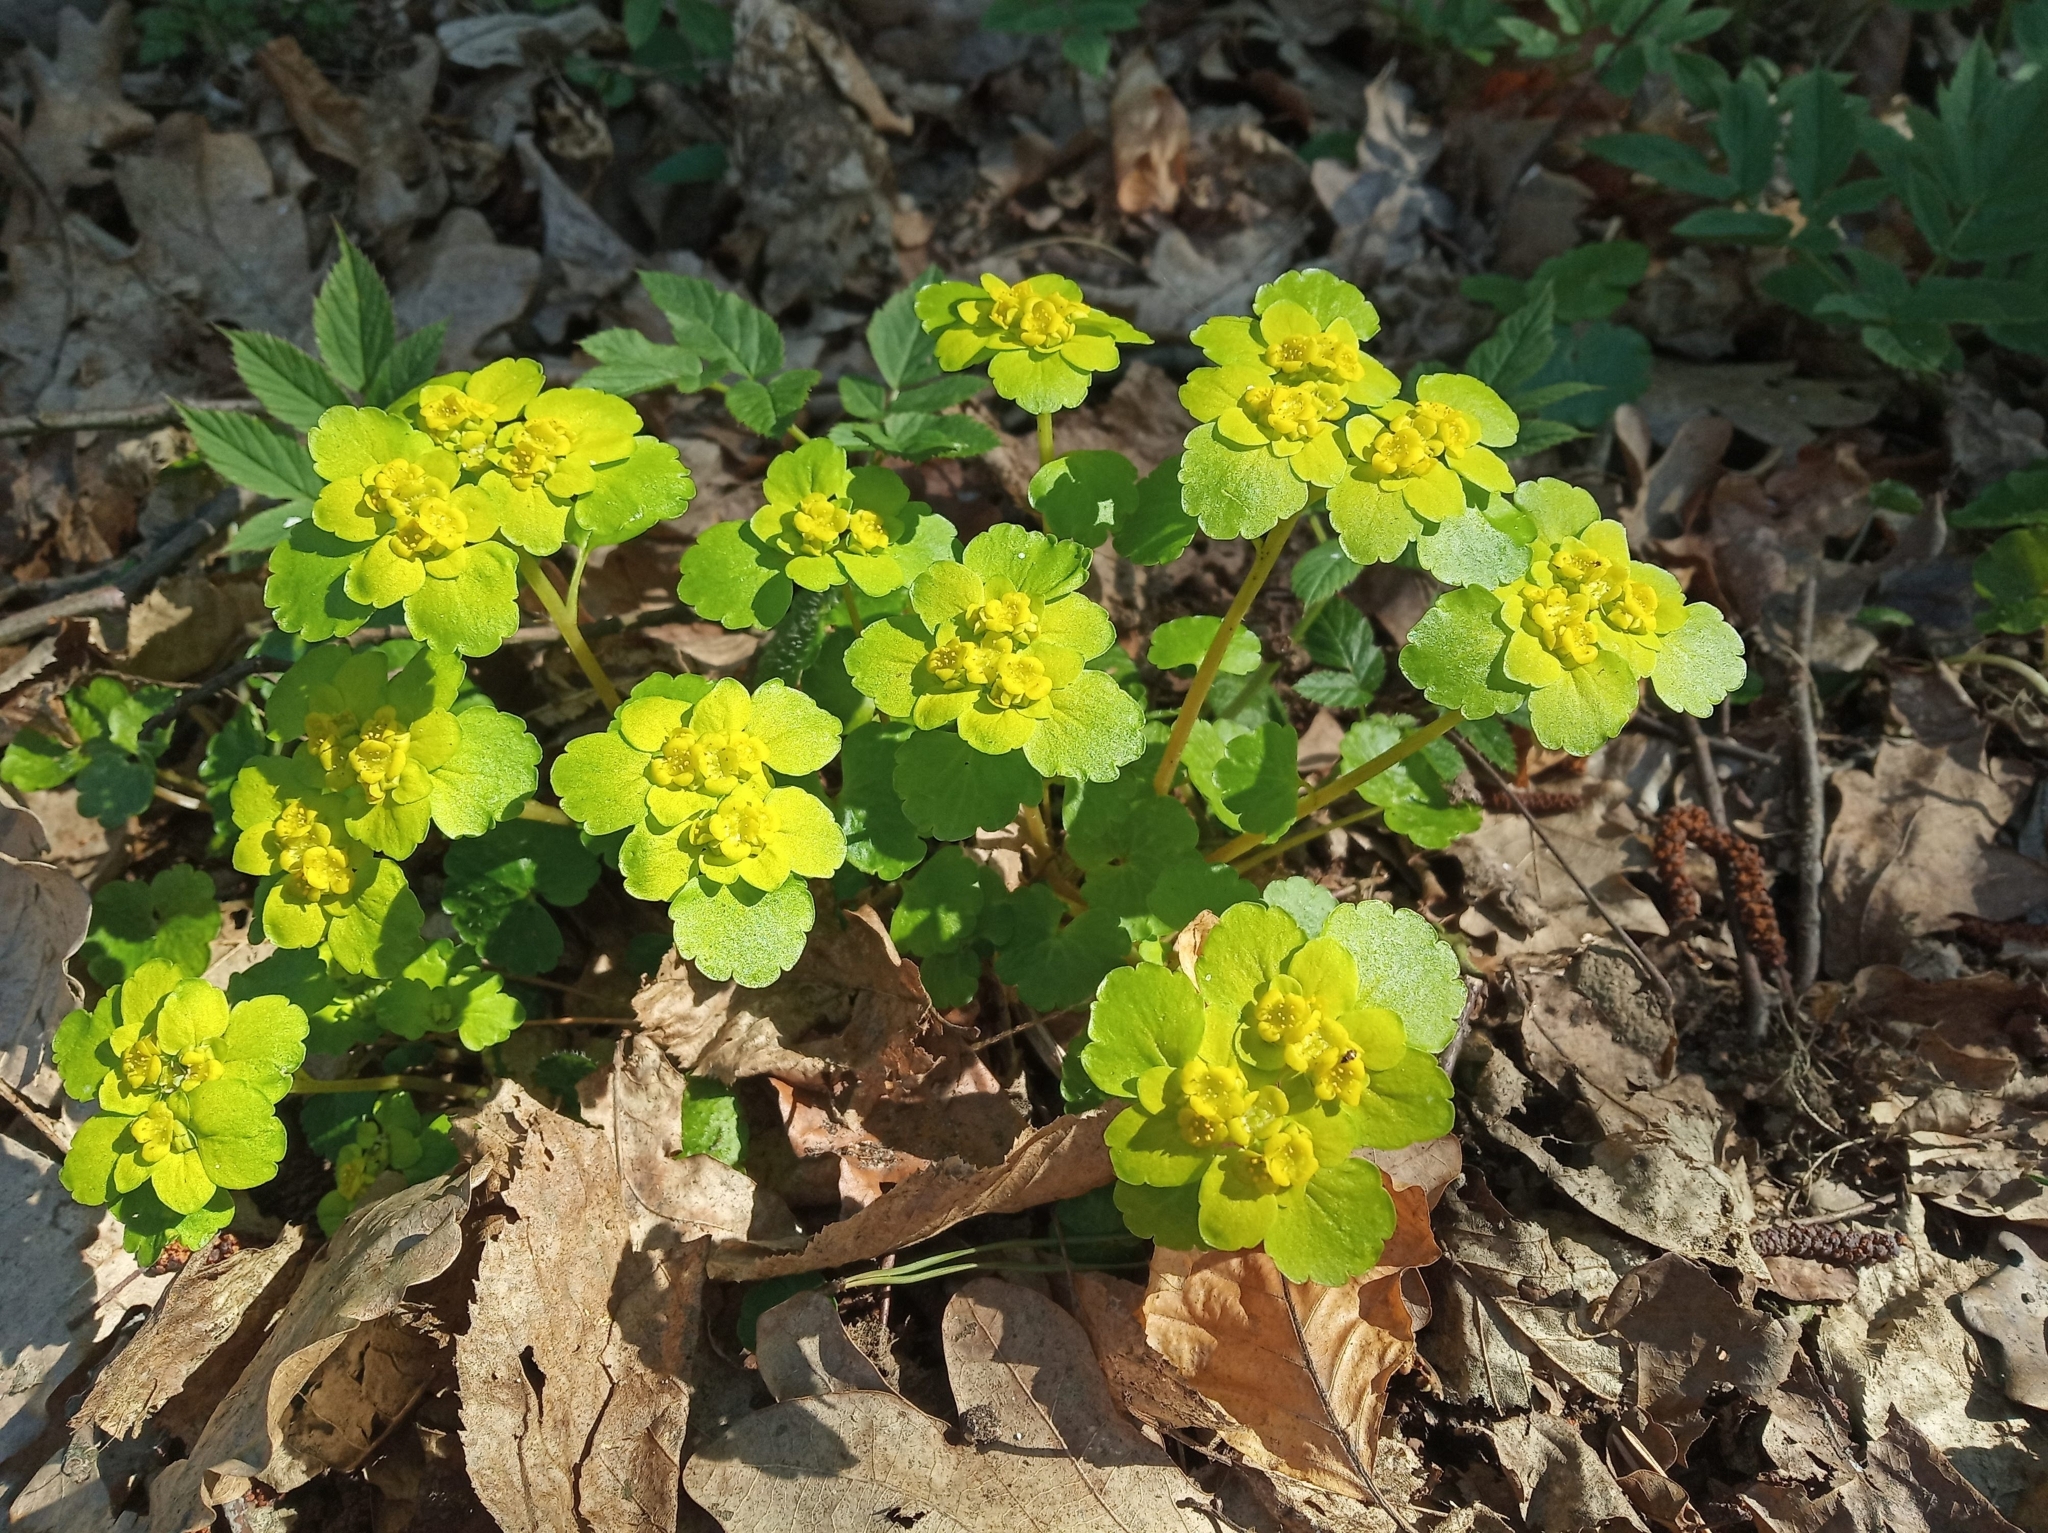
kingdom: Plantae
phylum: Tracheophyta
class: Magnoliopsida
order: Saxifragales
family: Saxifragaceae
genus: Chrysosplenium
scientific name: Chrysosplenium alternifolium
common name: Alternate-leaved golden-saxifrage
